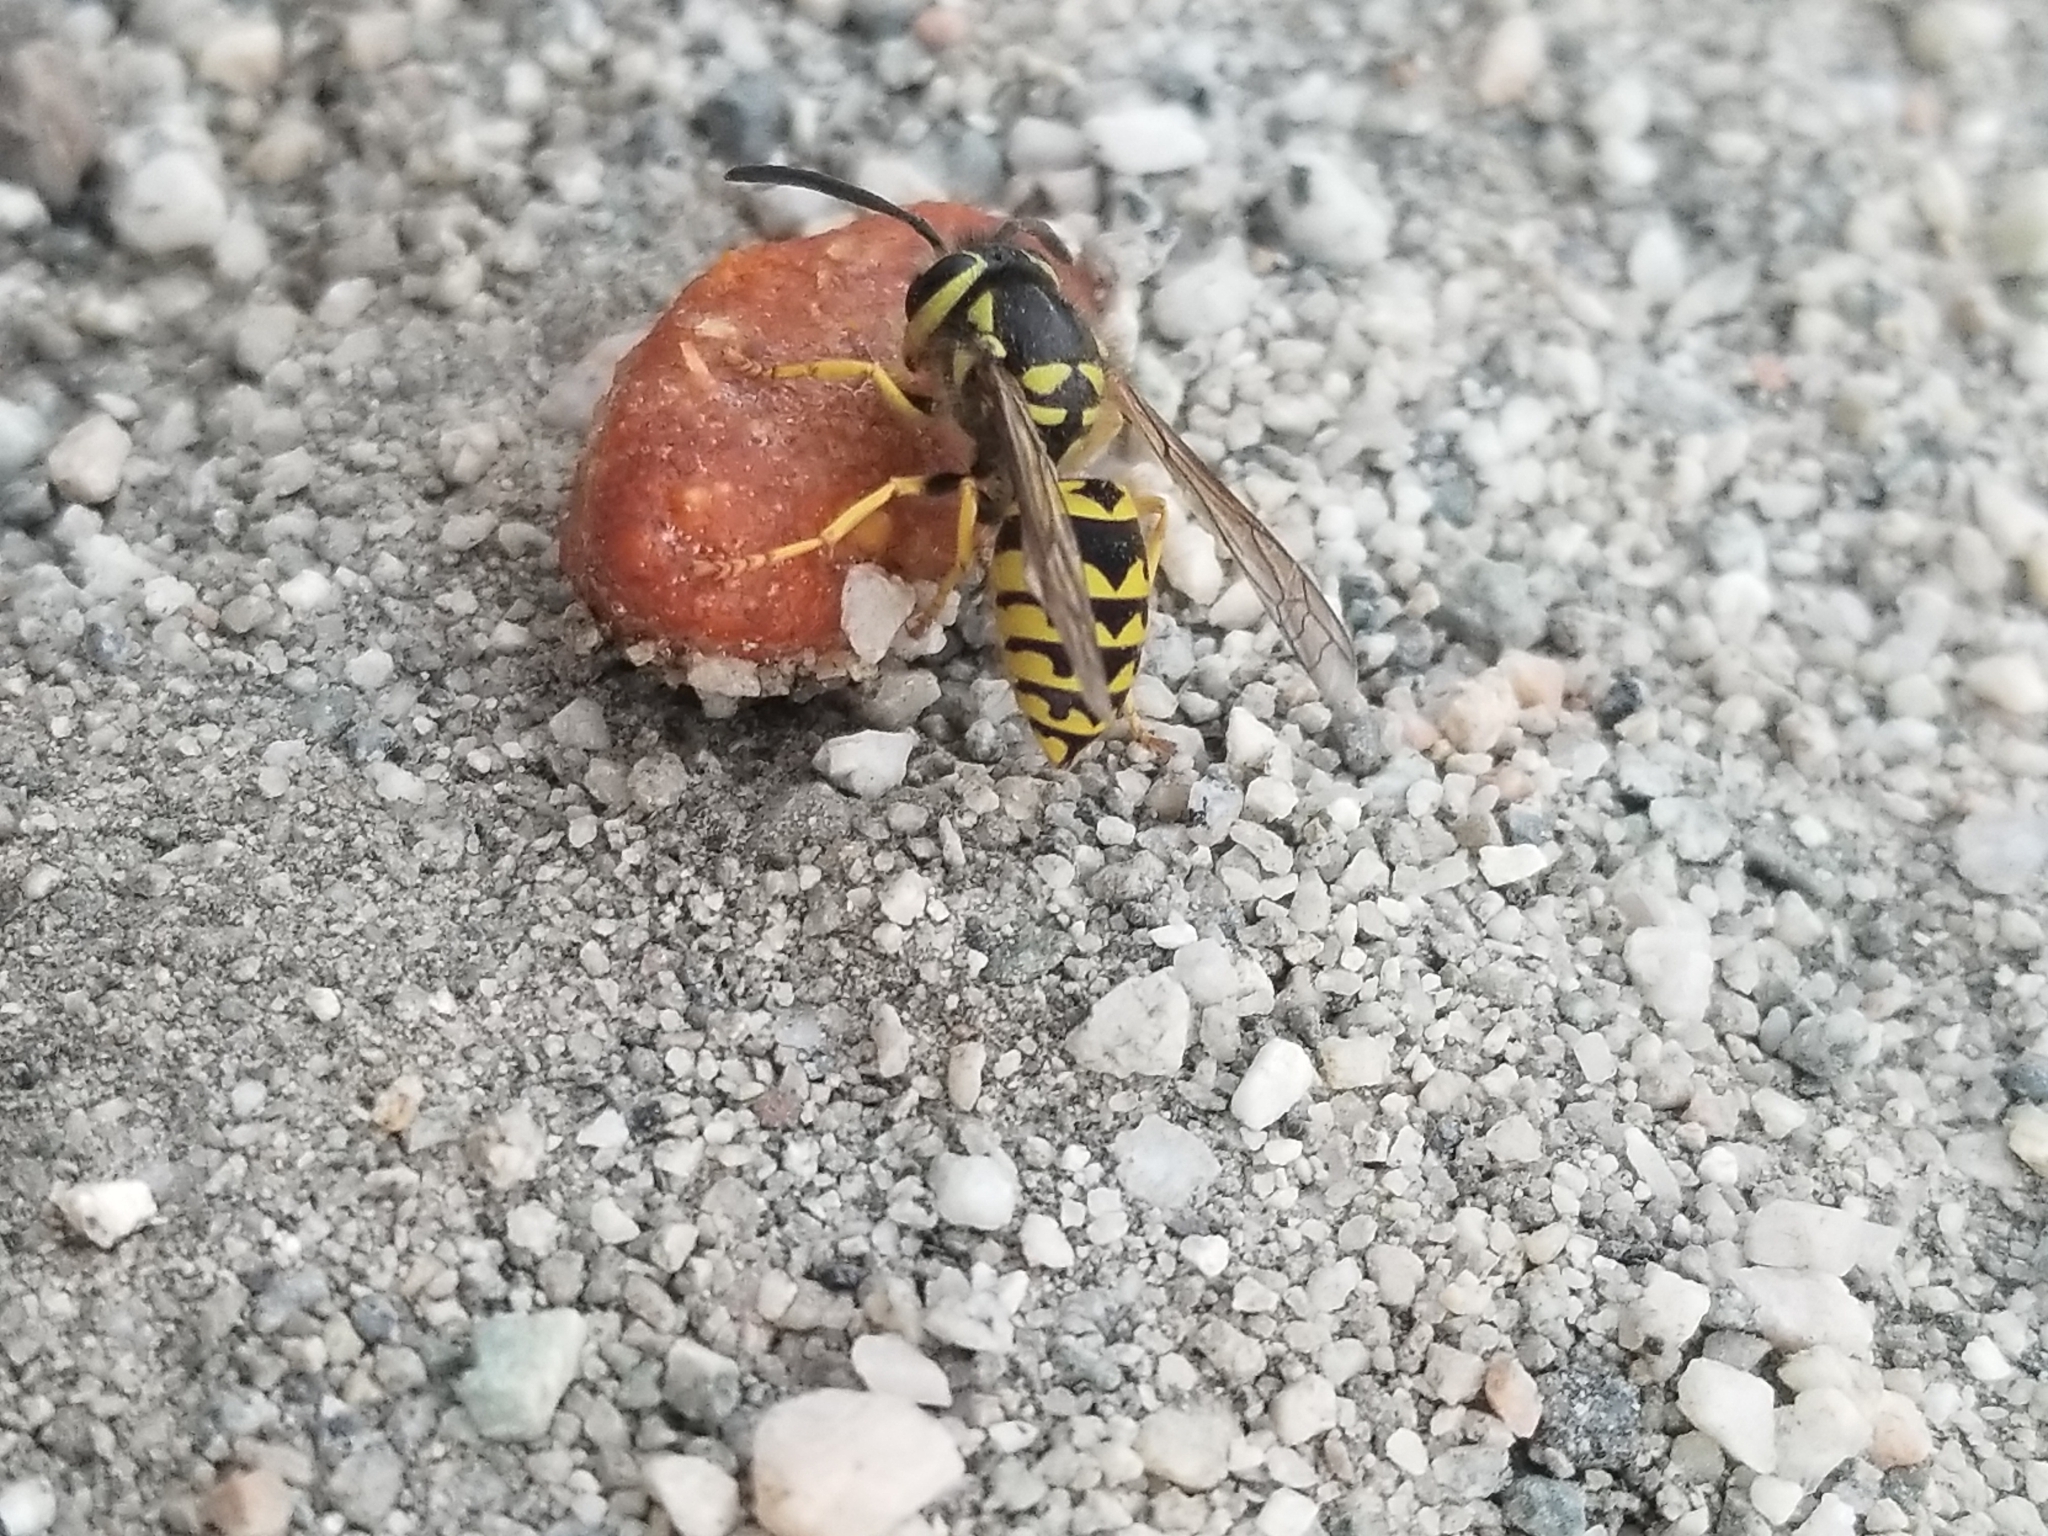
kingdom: Animalia
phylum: Arthropoda
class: Insecta
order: Hymenoptera
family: Vespidae
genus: Vespula
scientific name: Vespula pensylvanica
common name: Western yellowjacket
